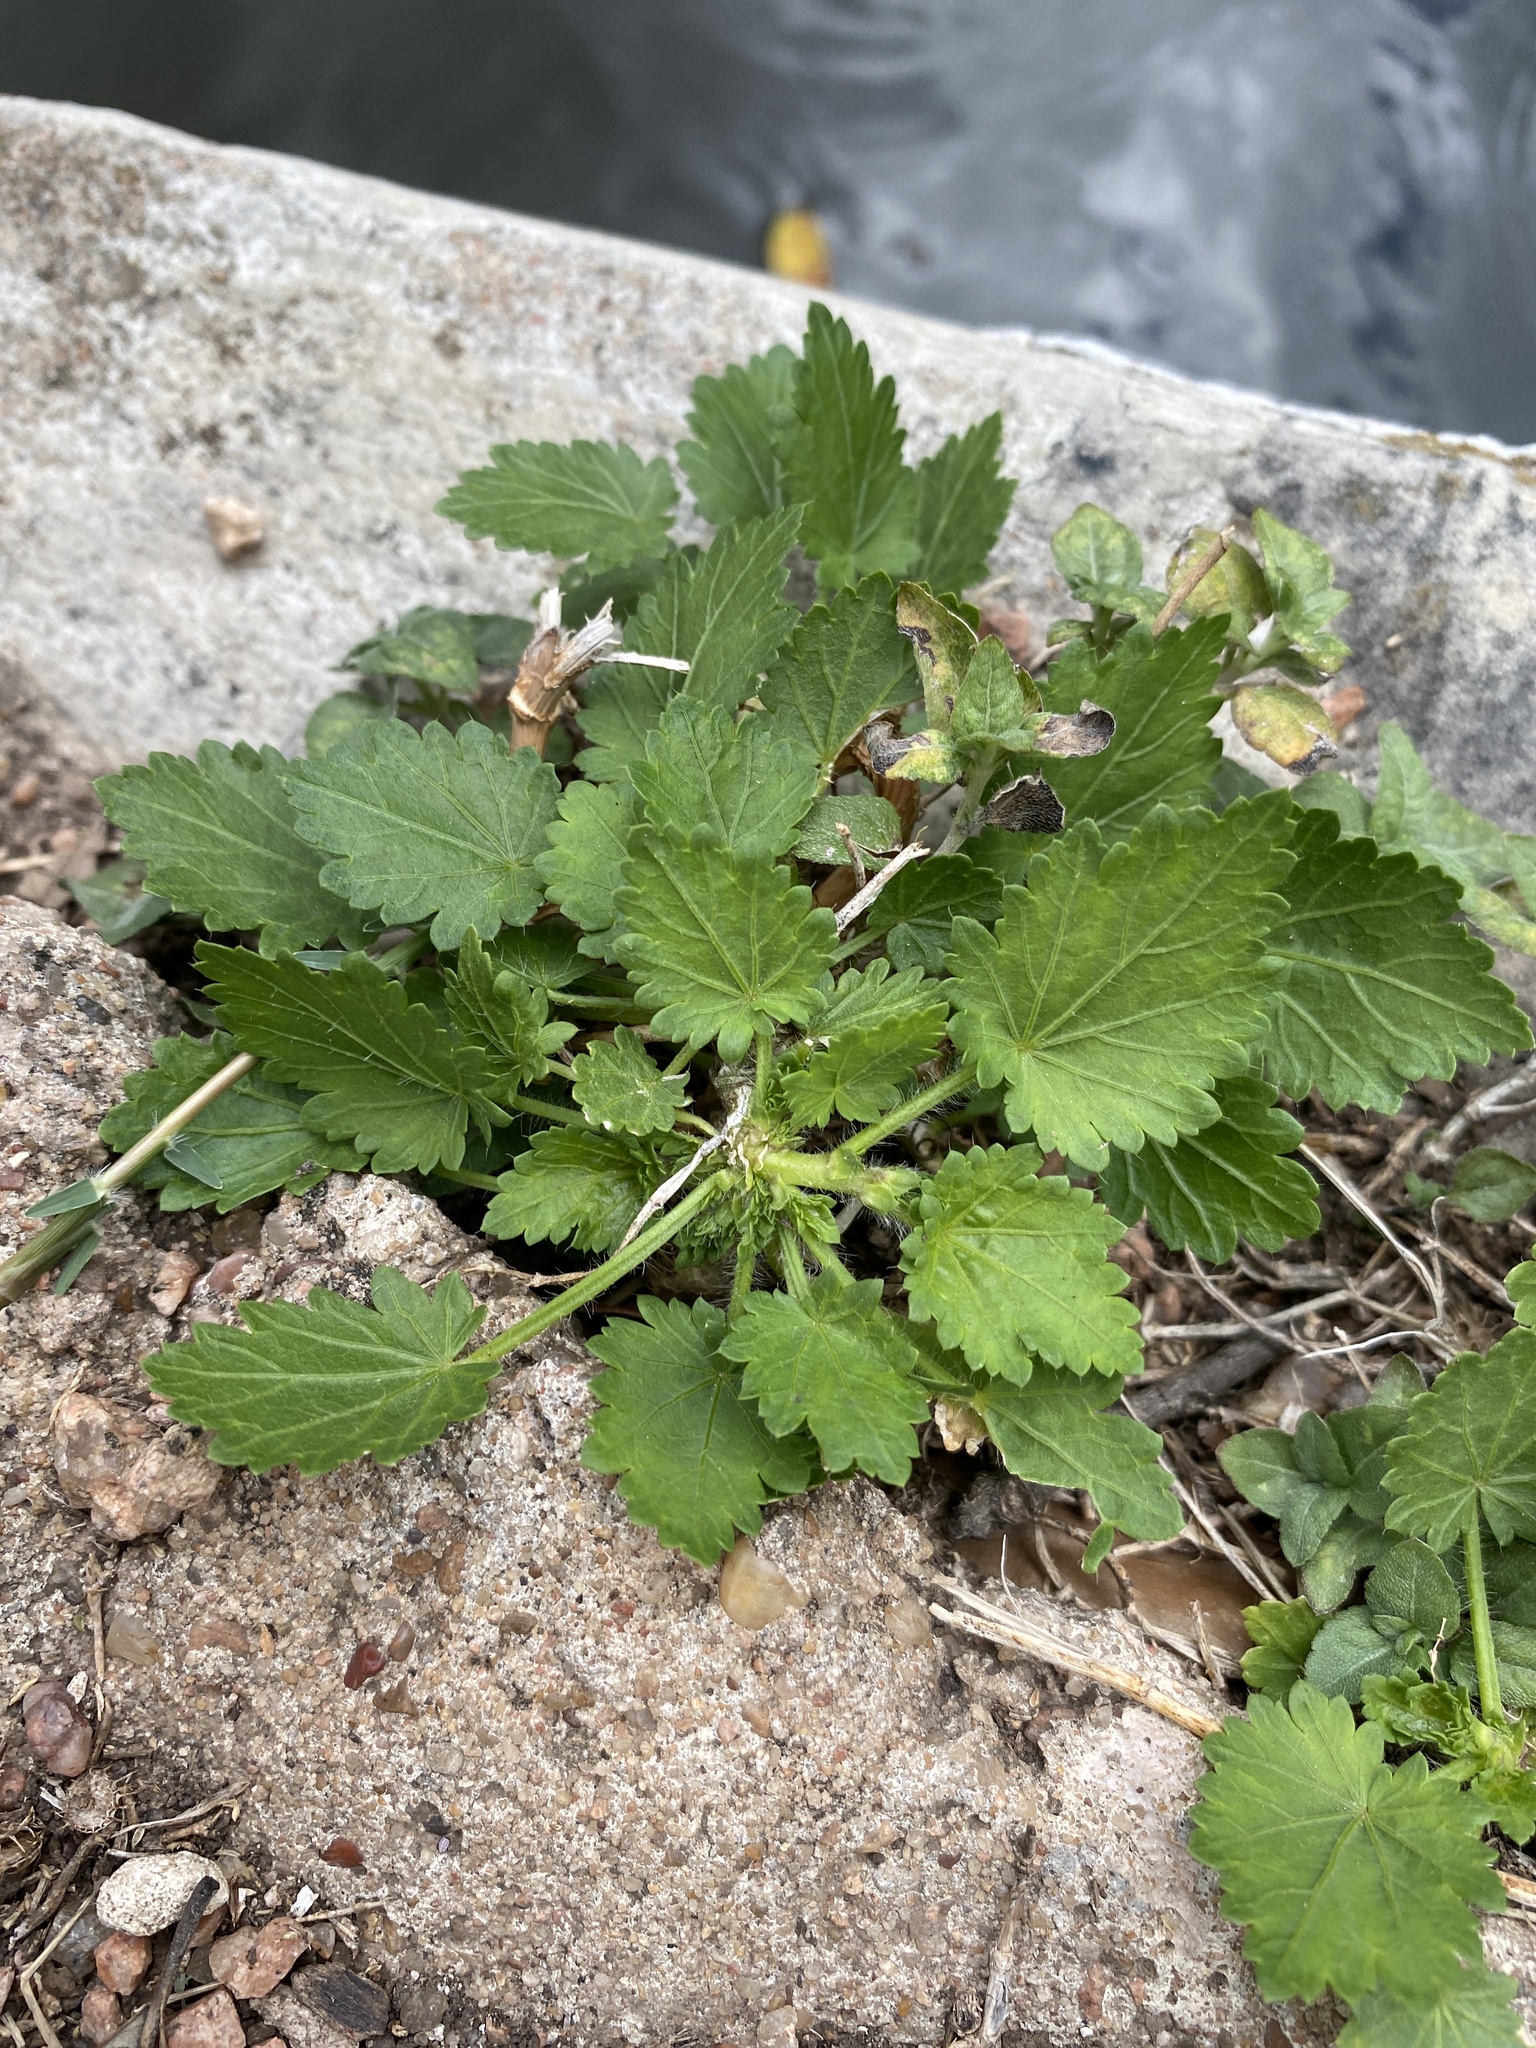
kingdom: Plantae
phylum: Tracheophyta
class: Magnoliopsida
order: Malvales
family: Malvaceae
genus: Modiola
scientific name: Modiola caroliniana
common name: Carolina bristlemallow
